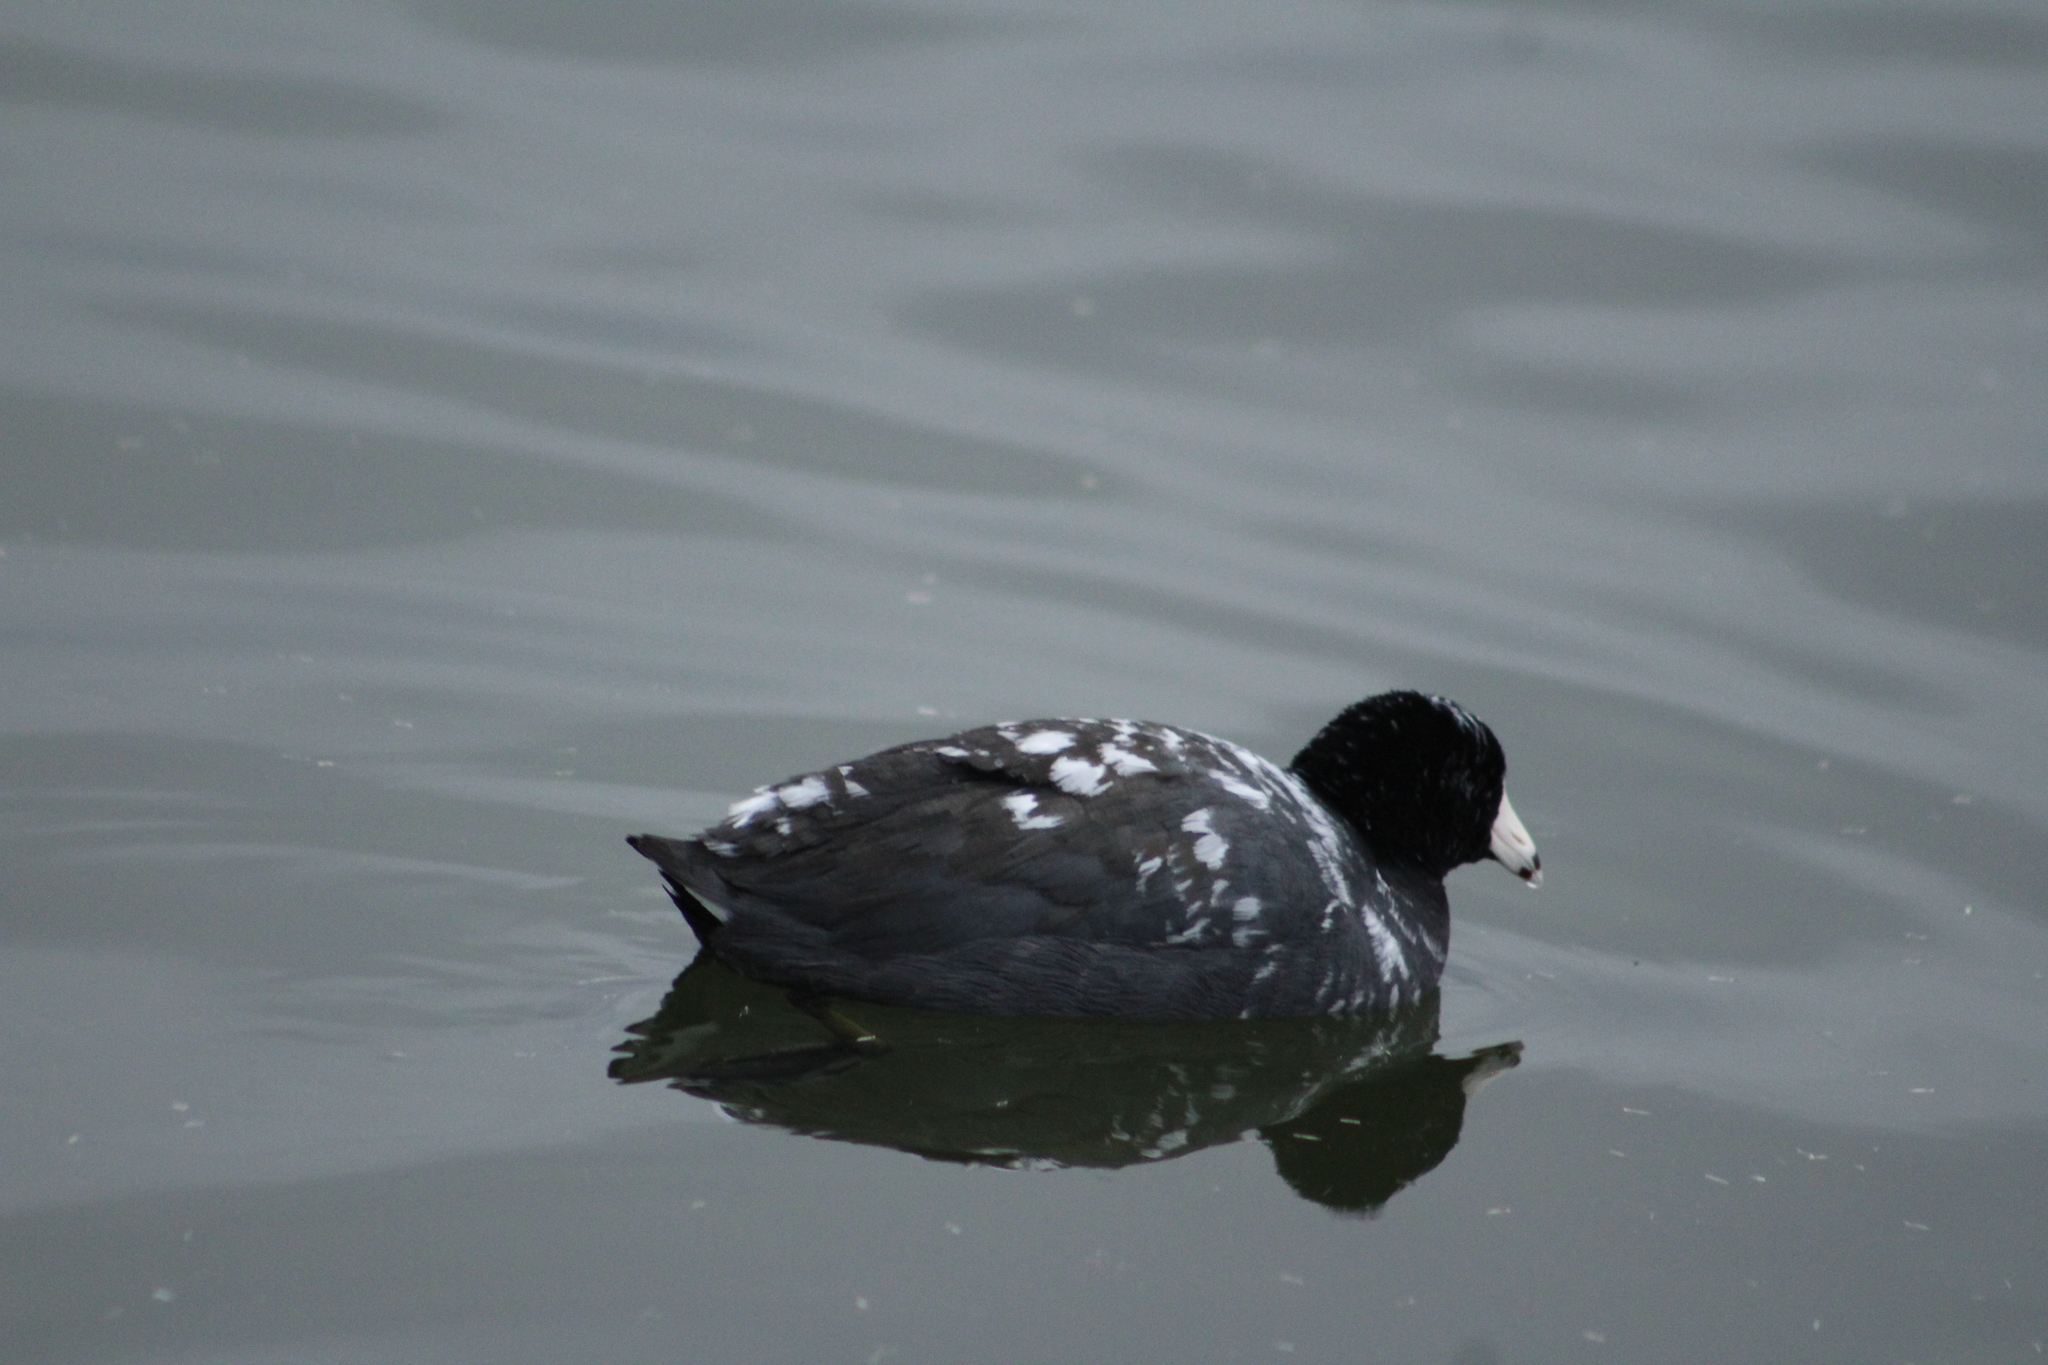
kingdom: Animalia
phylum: Chordata
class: Aves
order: Gruiformes
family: Rallidae
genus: Fulica
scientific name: Fulica americana
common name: American coot
